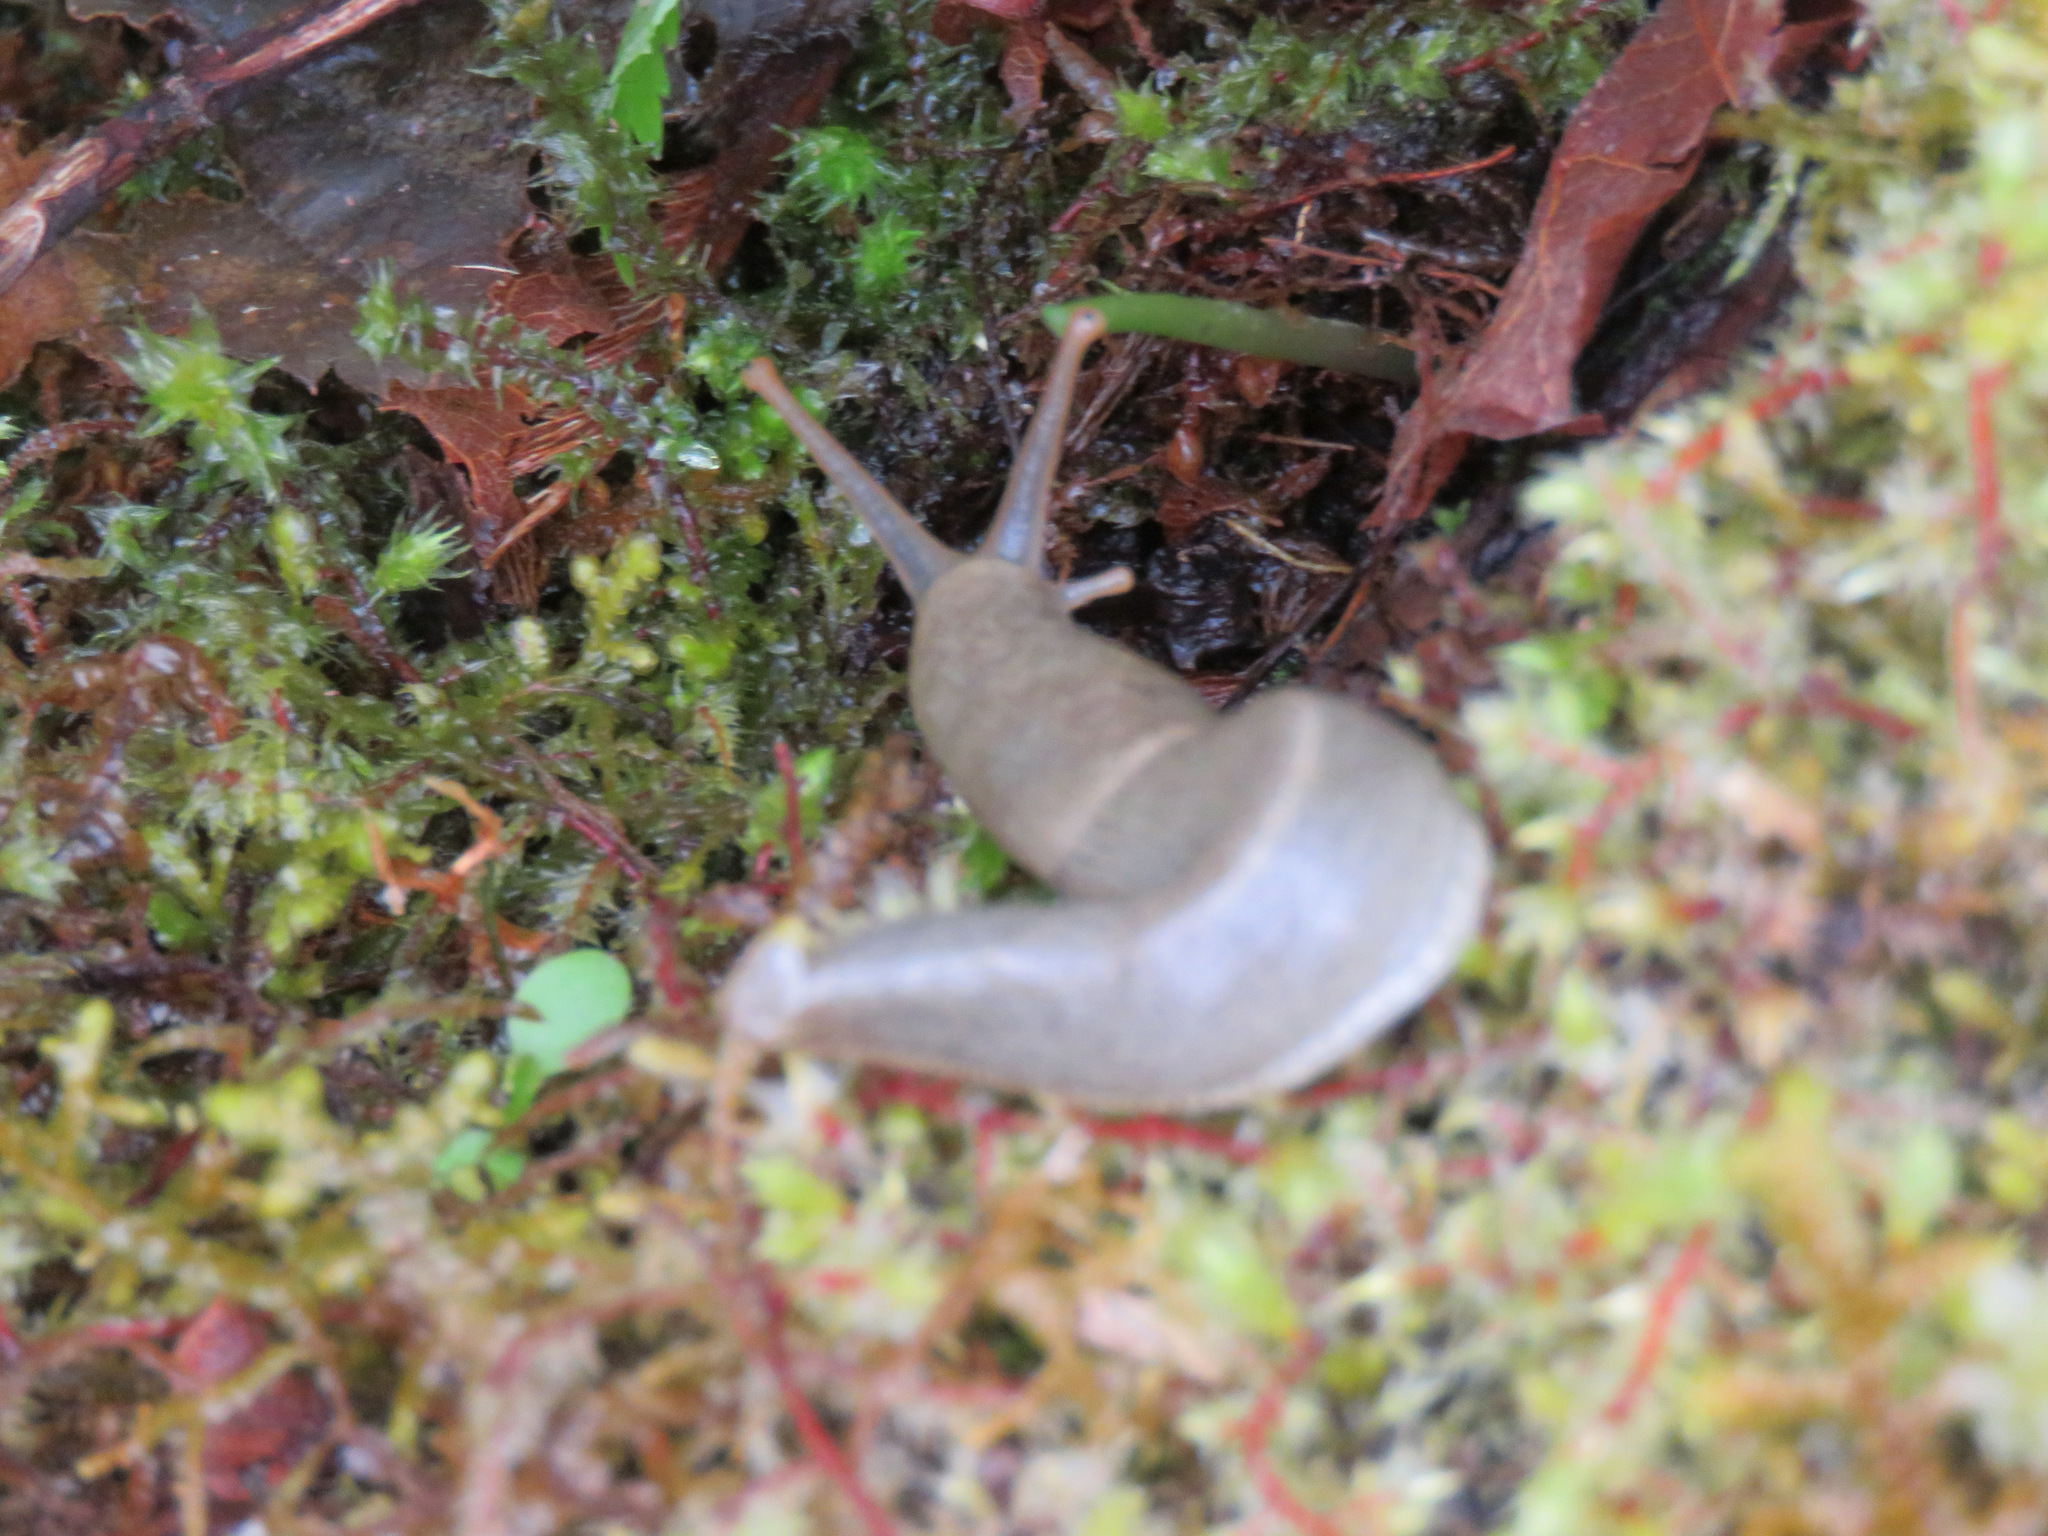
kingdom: Animalia
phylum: Mollusca
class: Gastropoda
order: Stylommatophora
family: Ariolimacidae
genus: Ariolimax
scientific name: Ariolimax columbianus
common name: Pacific banana slug
